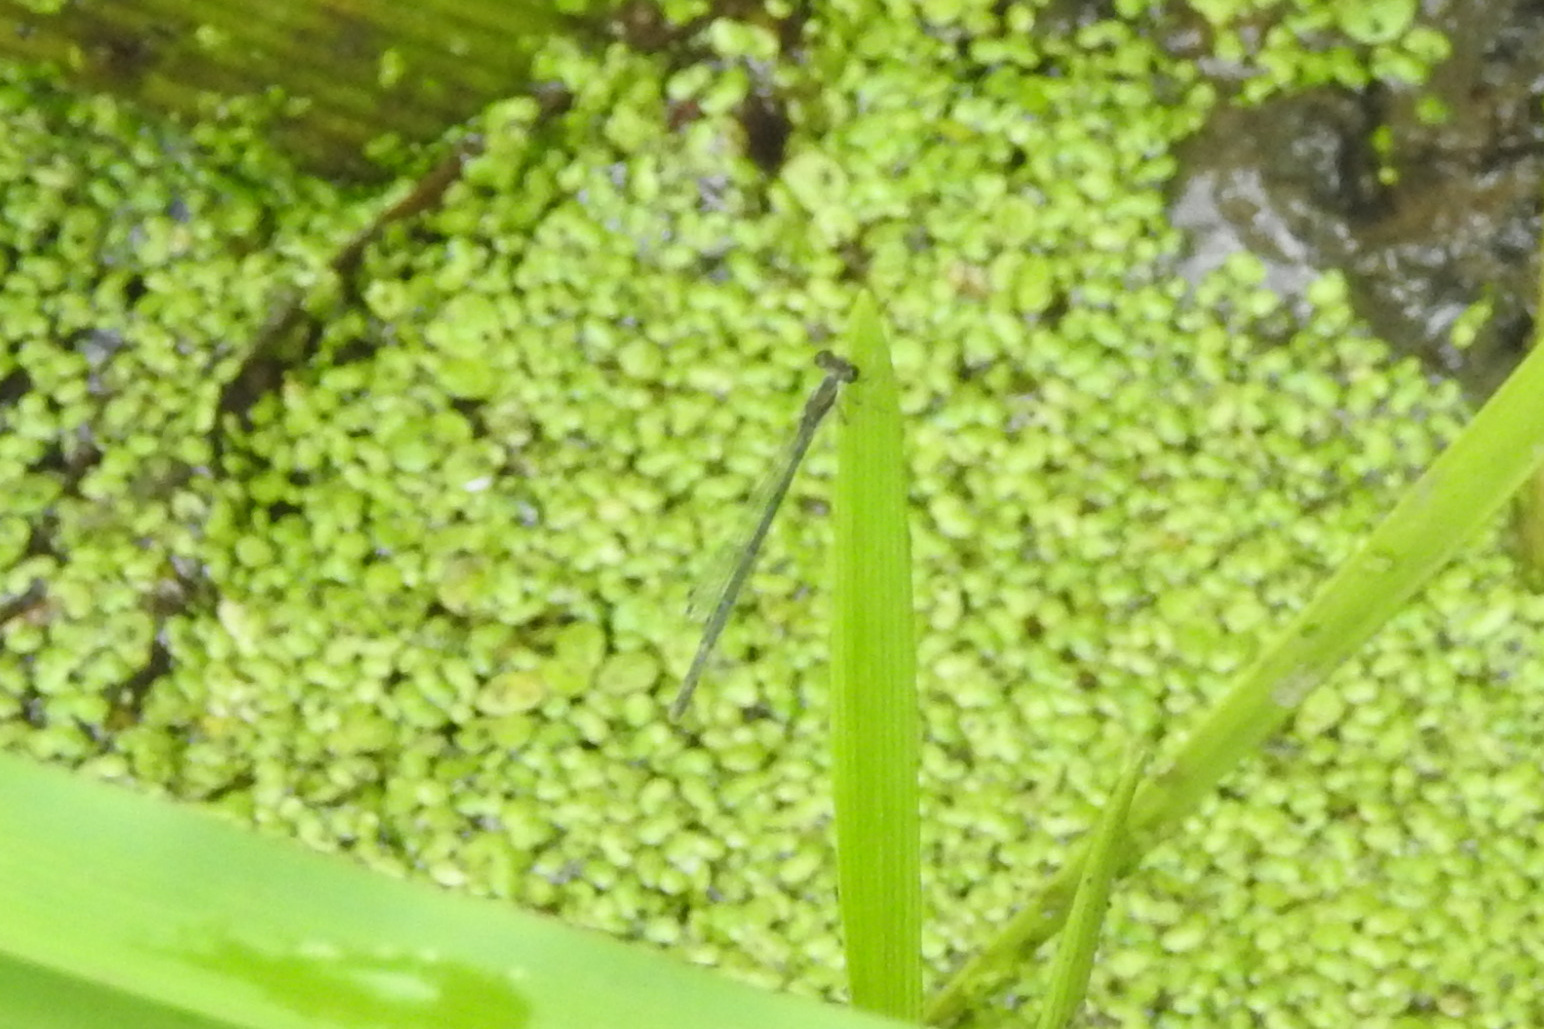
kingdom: Animalia
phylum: Arthropoda
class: Insecta
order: Odonata
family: Coenagrionidae
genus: Ischnura
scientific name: Ischnura posita
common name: Fragile forktail
